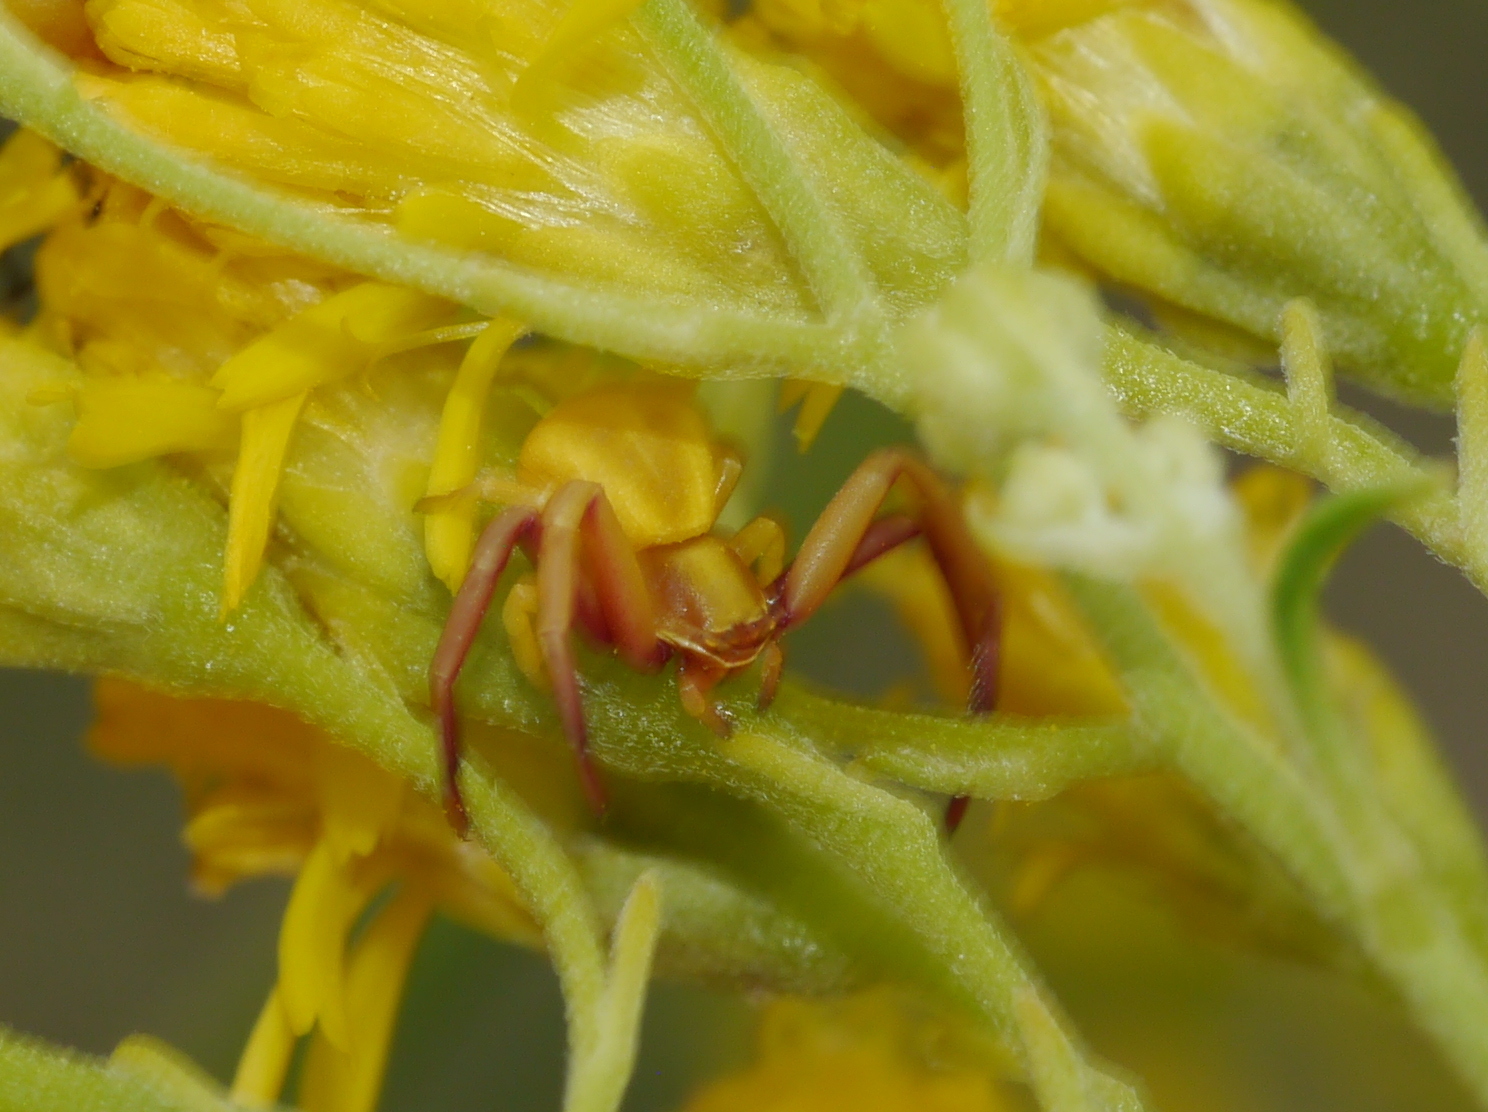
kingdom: Animalia
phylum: Arthropoda
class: Arachnida
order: Araneae
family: Thomisidae
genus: Misumenoides
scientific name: Misumenoides formosipes
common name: White-banded crab spider
